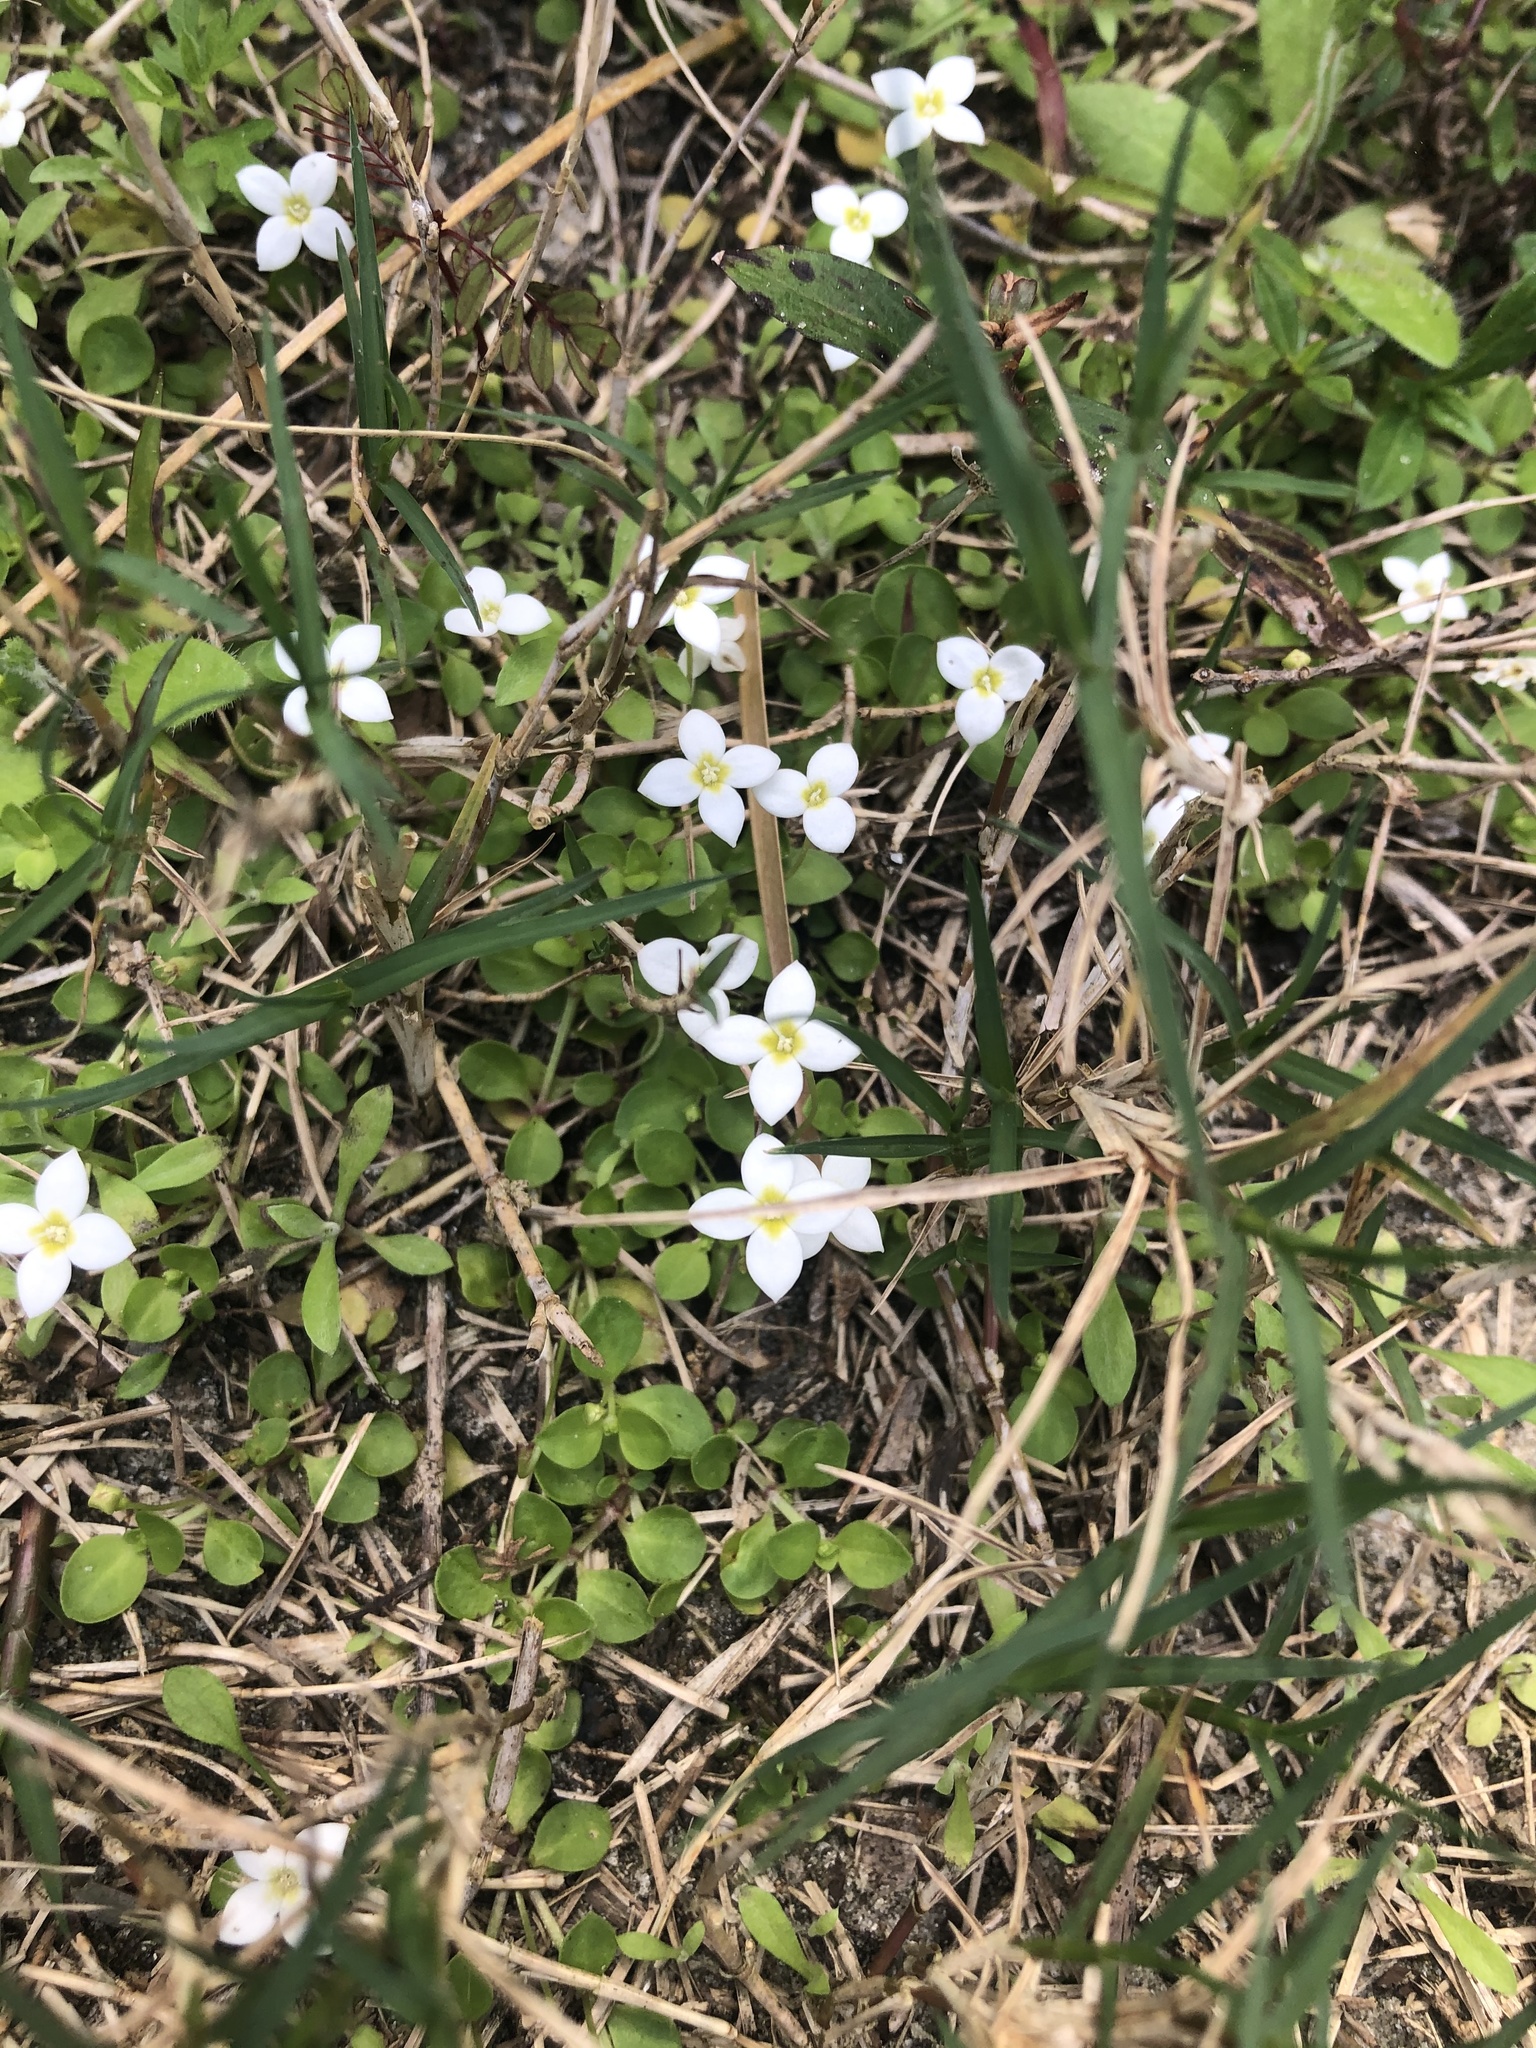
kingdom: Plantae
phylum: Tracheophyta
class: Magnoliopsida
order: Gentianales
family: Rubiaceae
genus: Houstonia
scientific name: Houstonia procumbens
